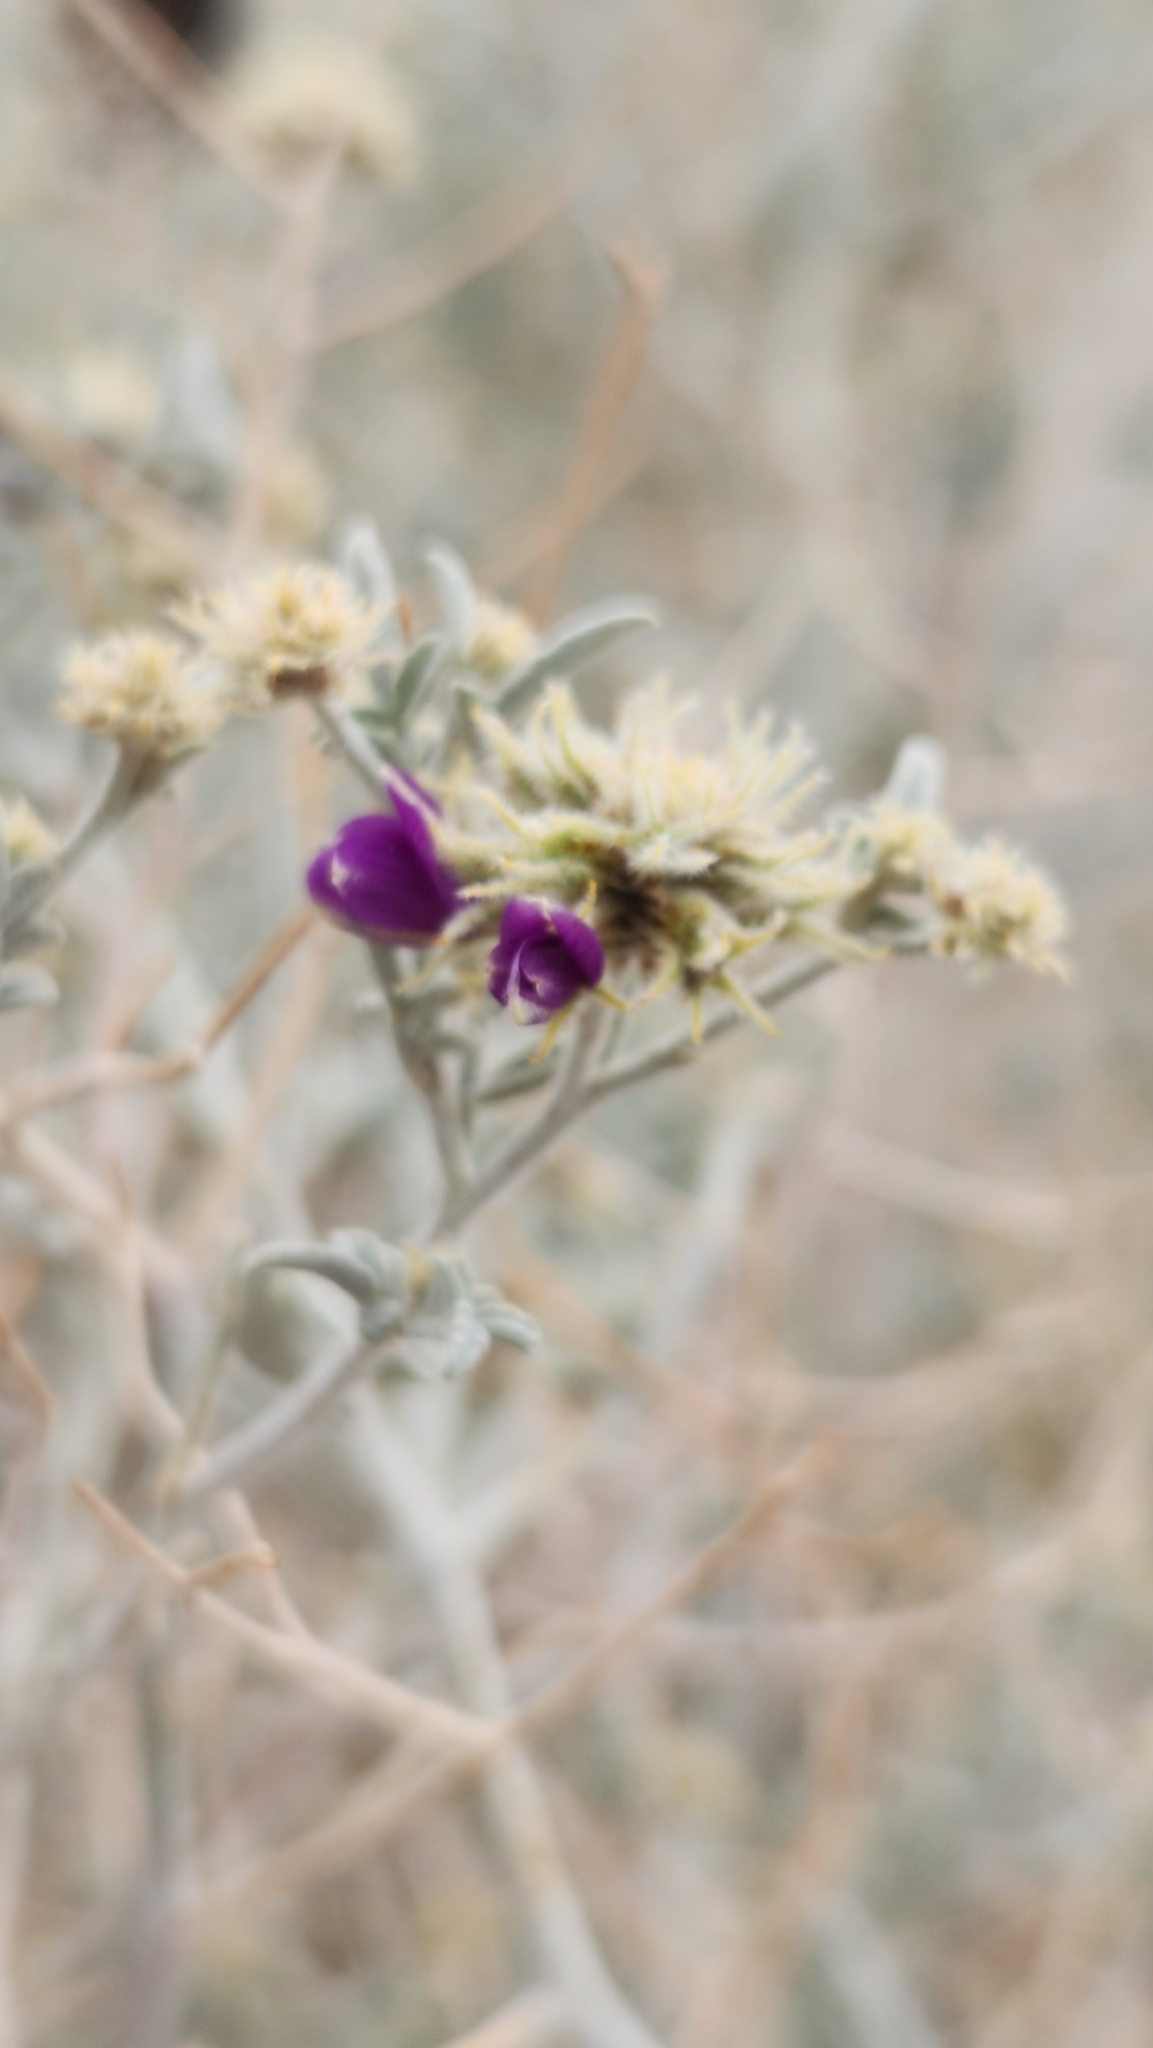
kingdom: Plantae
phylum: Tracheophyta
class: Magnoliopsida
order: Fabales
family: Fabaceae
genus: Psorothamnus
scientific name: Psorothamnus emoryi
